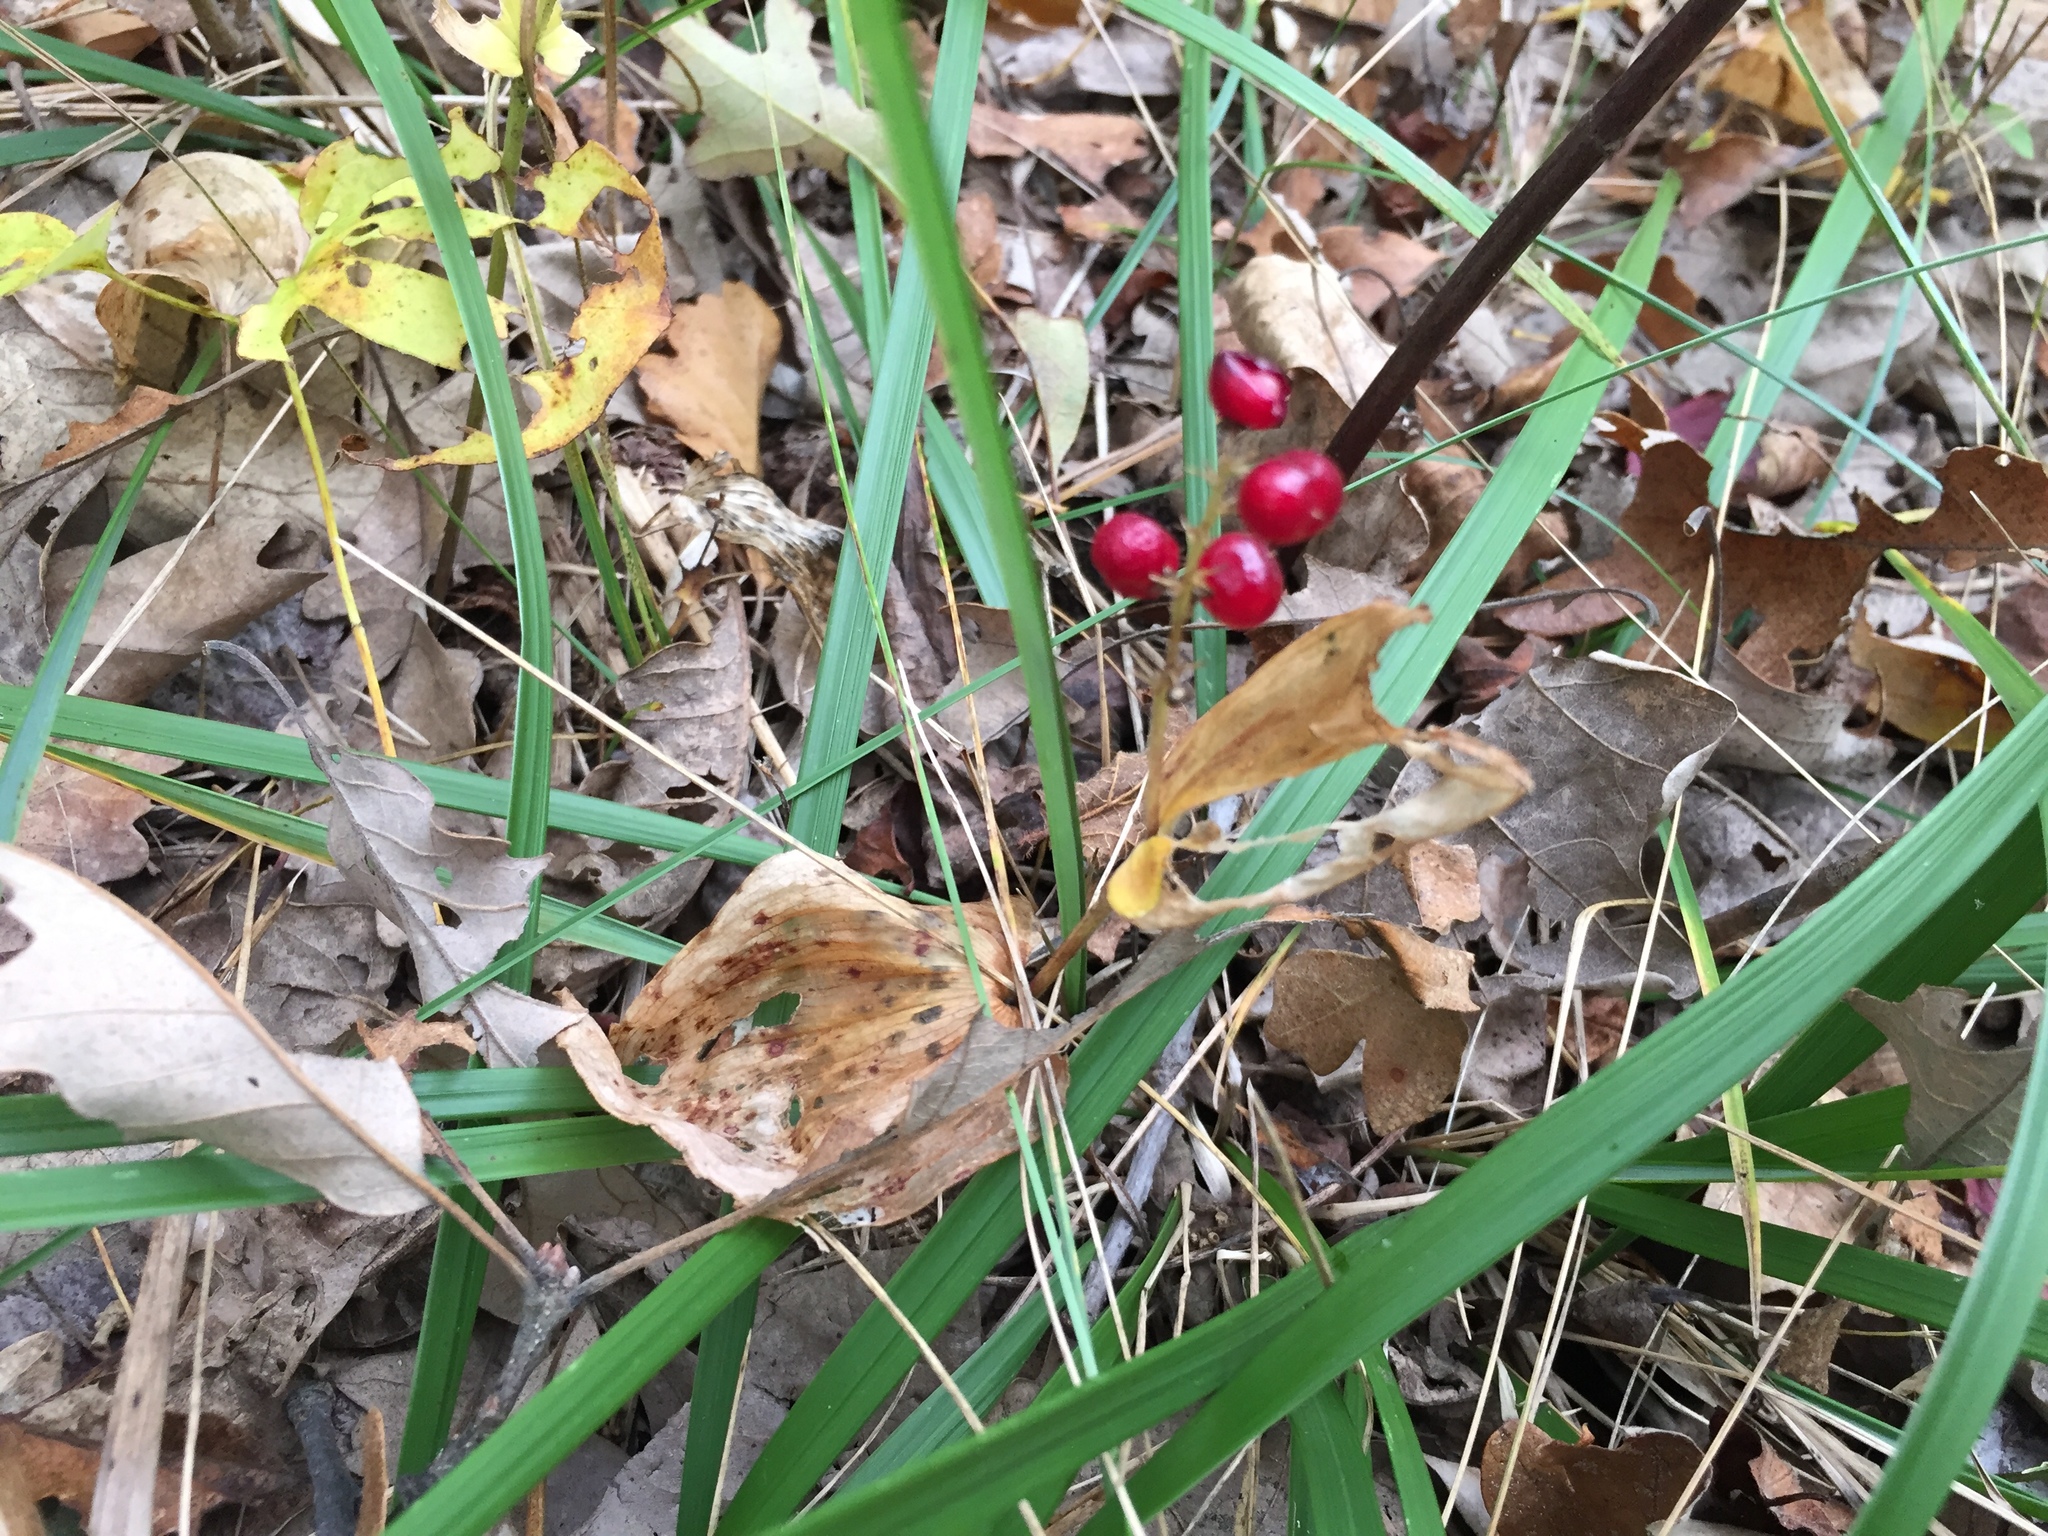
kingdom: Plantae
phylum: Tracheophyta
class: Liliopsida
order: Asparagales
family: Asparagaceae
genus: Maianthemum
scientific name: Maianthemum canadense
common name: False lily-of-the-valley
